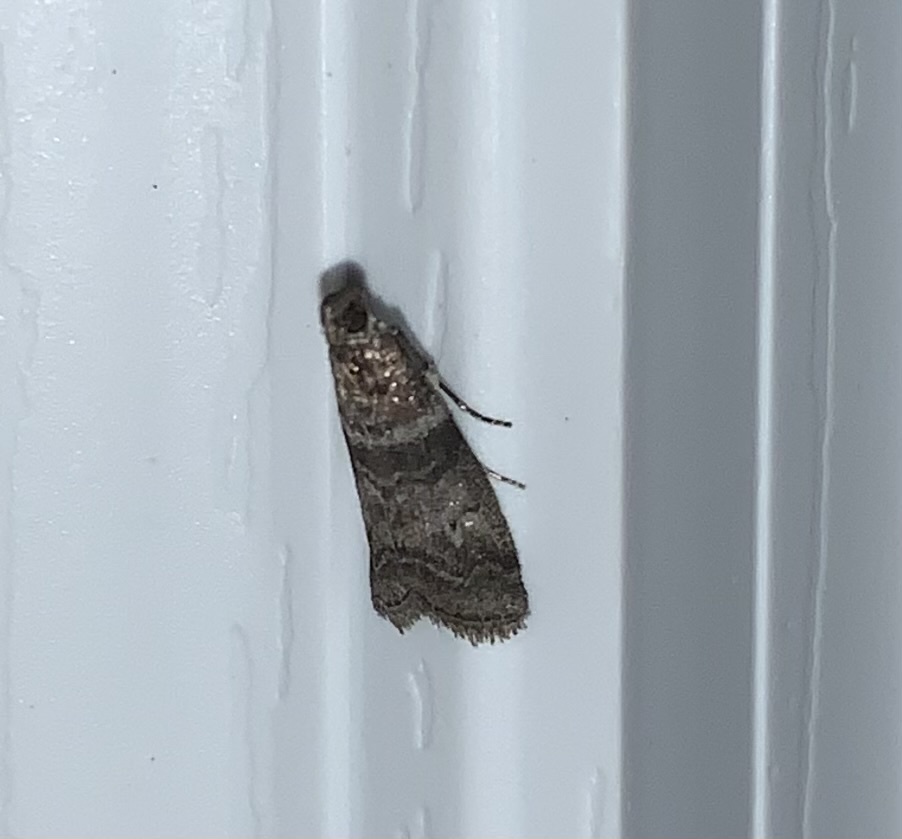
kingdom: Animalia
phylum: Arthropoda
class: Insecta
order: Lepidoptera
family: Pyralidae
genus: Sciota
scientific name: Sciota uvinella
